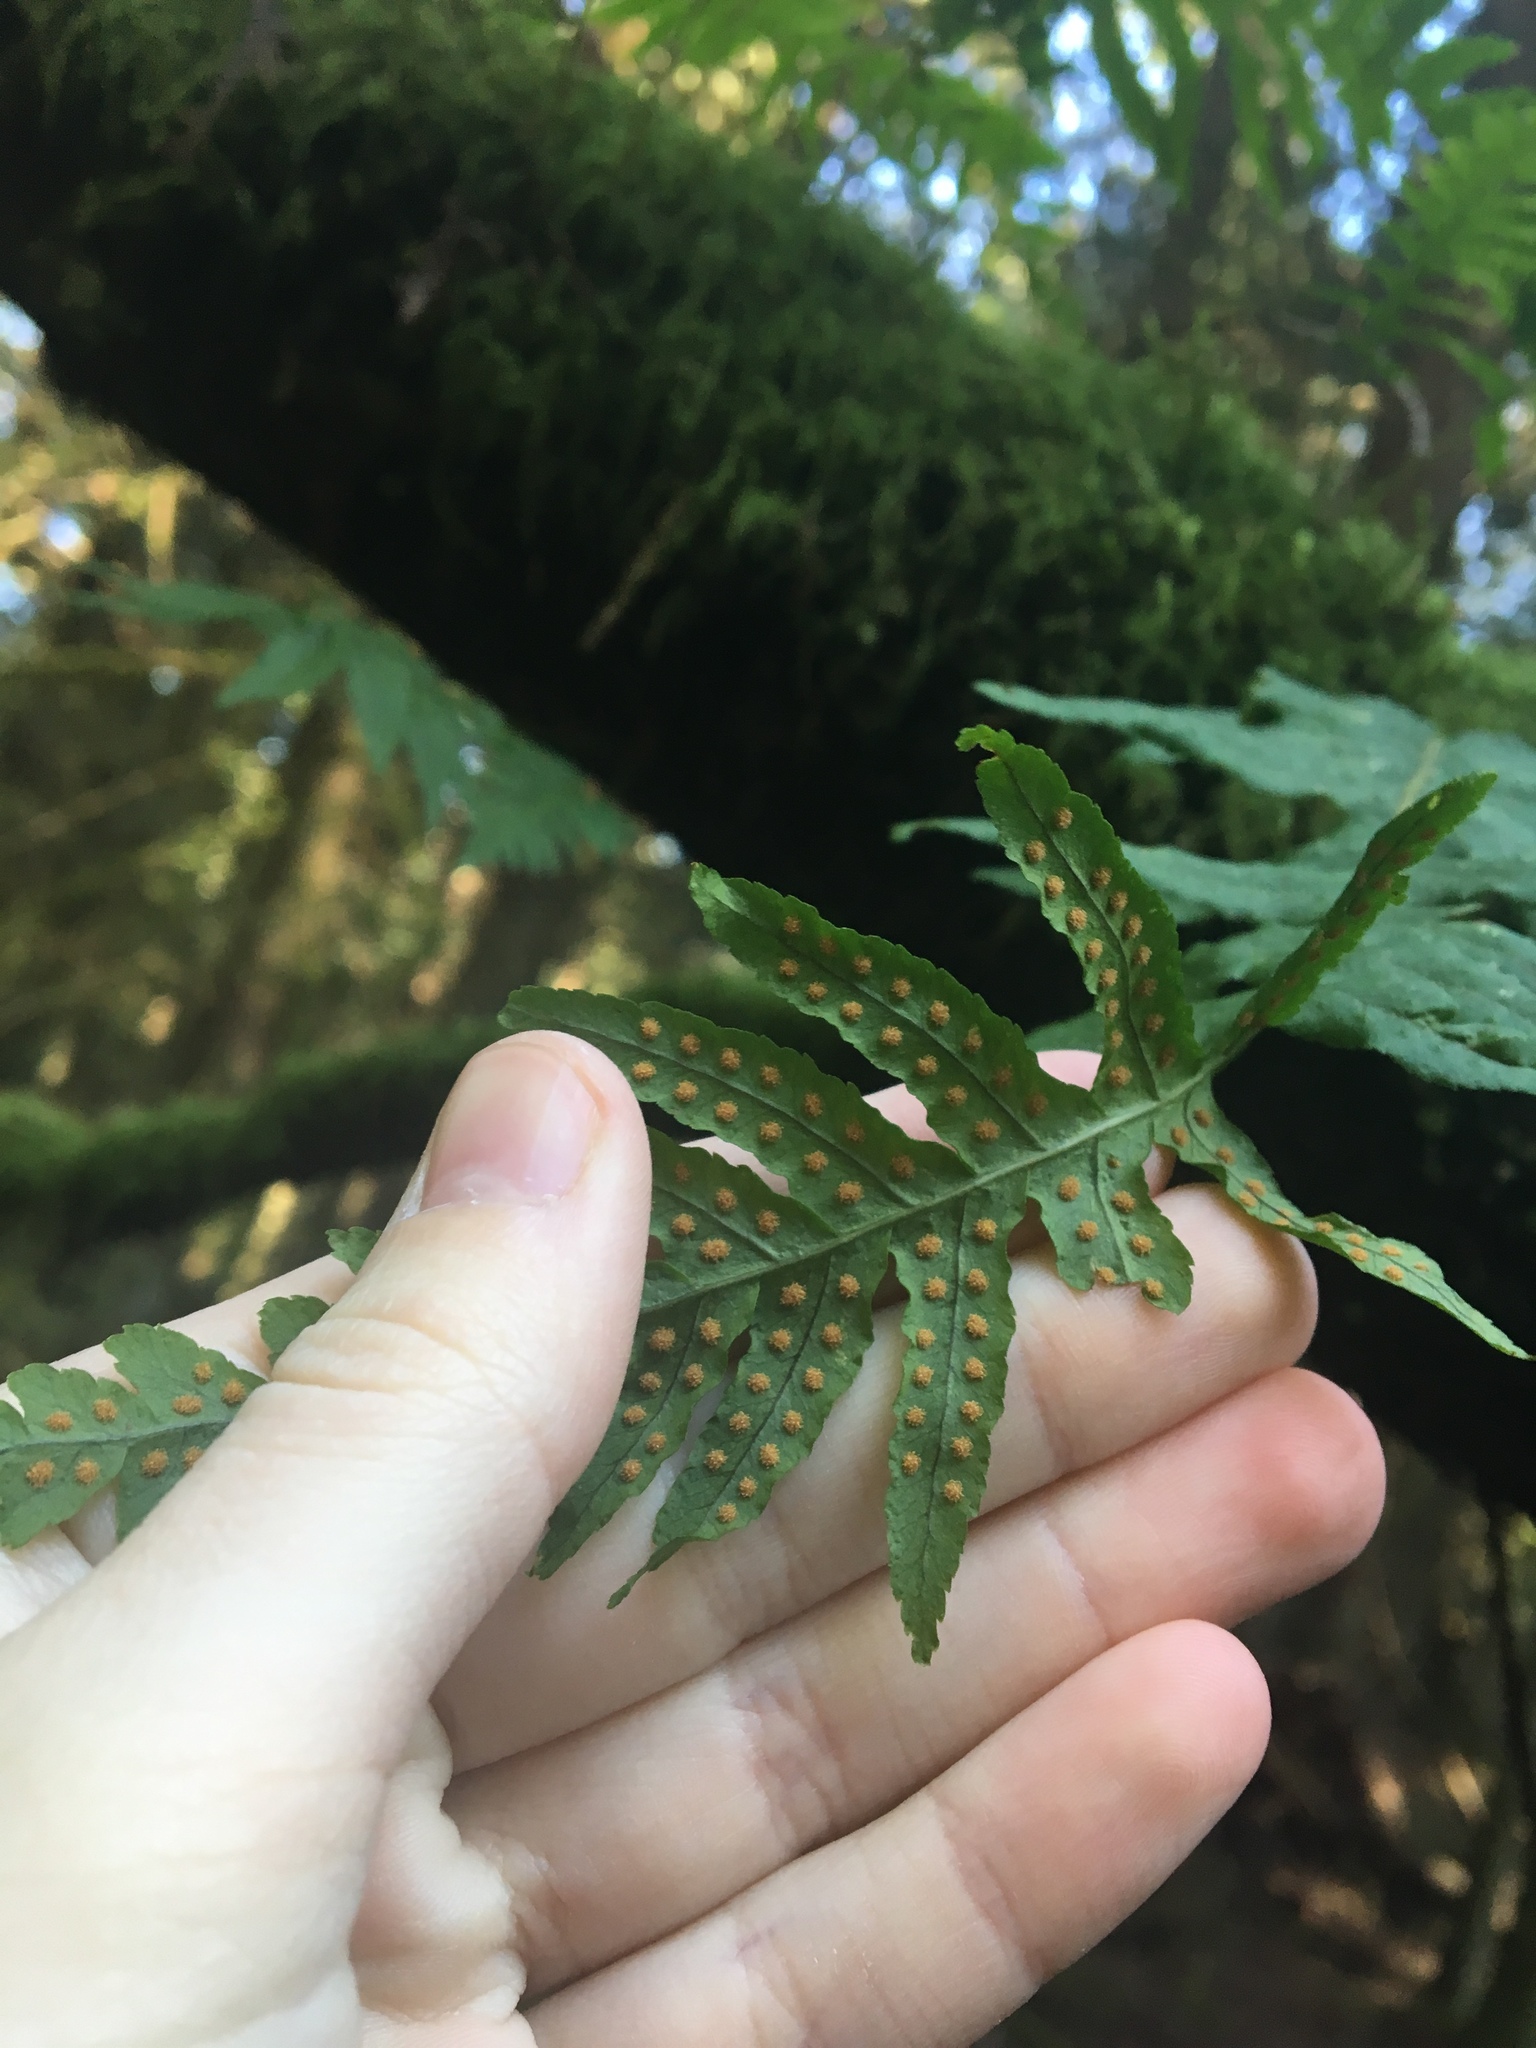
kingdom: Plantae
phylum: Tracheophyta
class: Polypodiopsida
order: Polypodiales
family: Polypodiaceae
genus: Polypodium
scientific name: Polypodium glycyrrhiza
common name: Licorice fern
